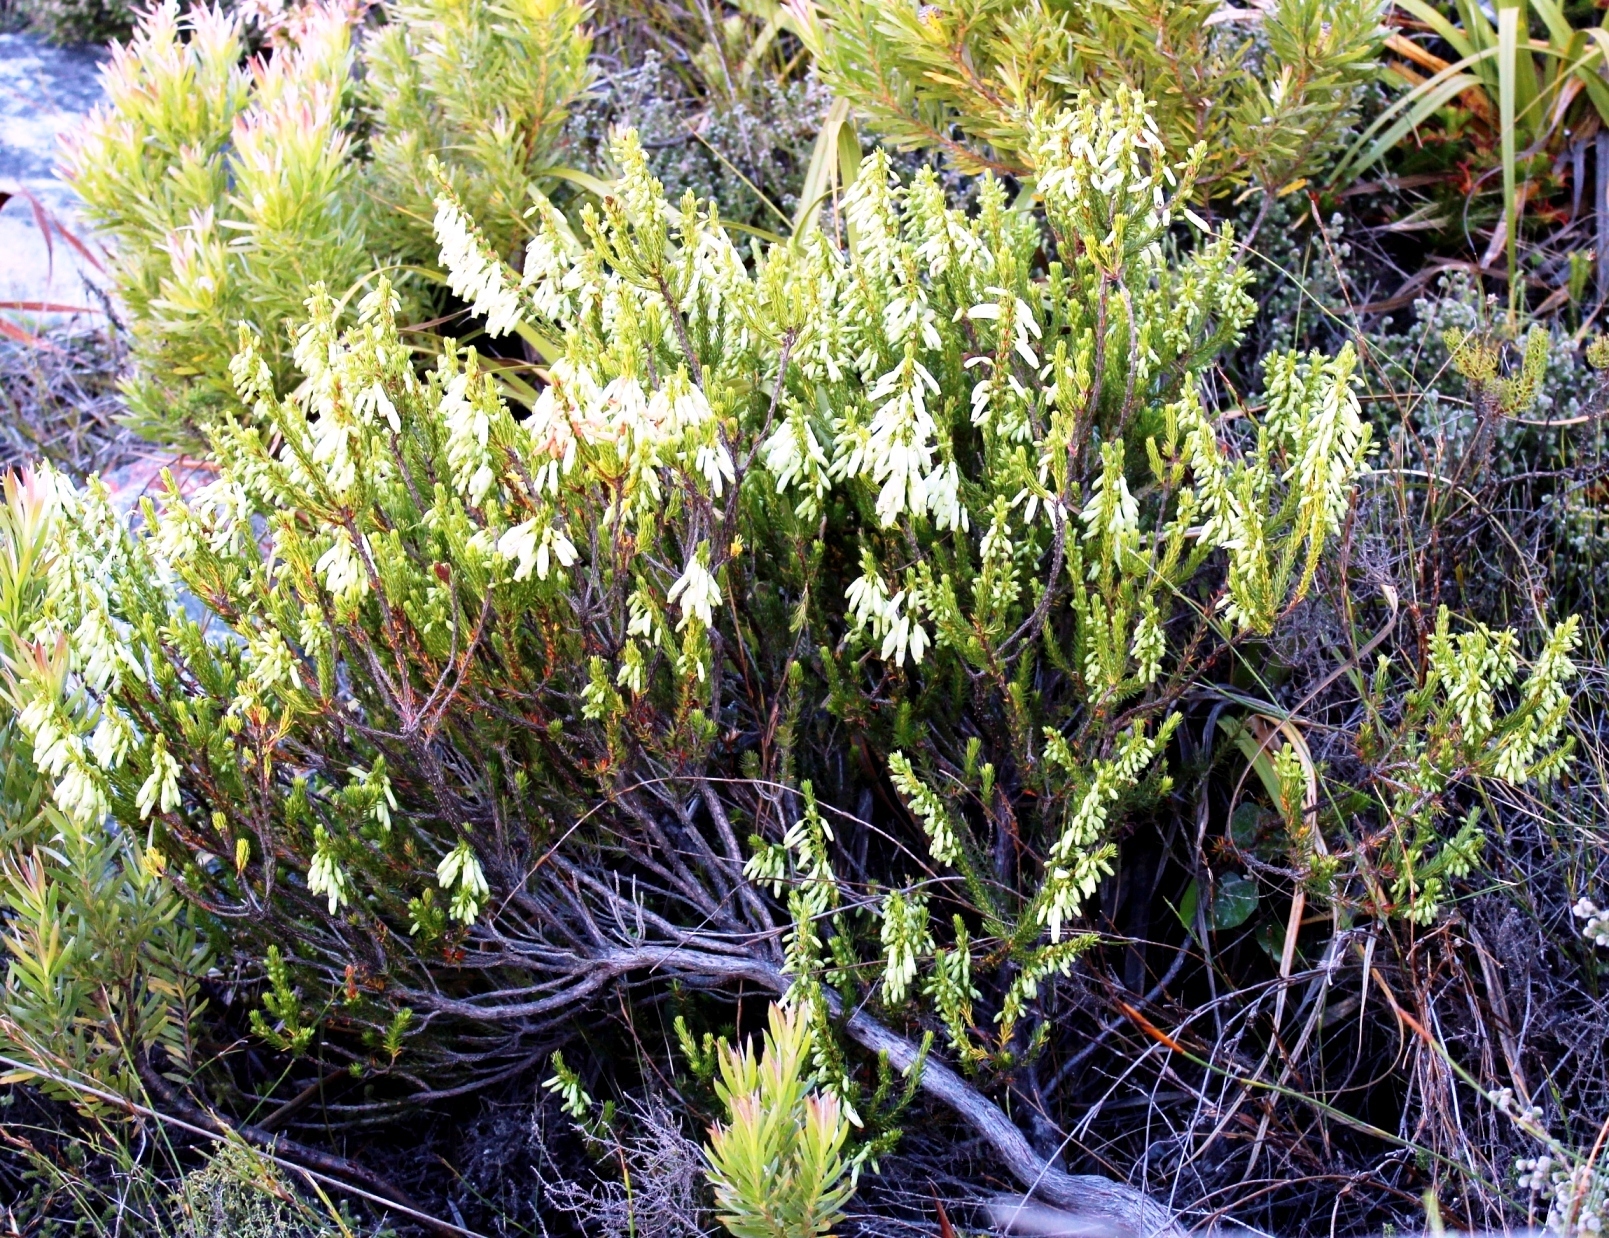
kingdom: Plantae
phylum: Tracheophyta
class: Magnoliopsida
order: Ericales
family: Ericaceae
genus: Erica
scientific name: Erica mammosa
